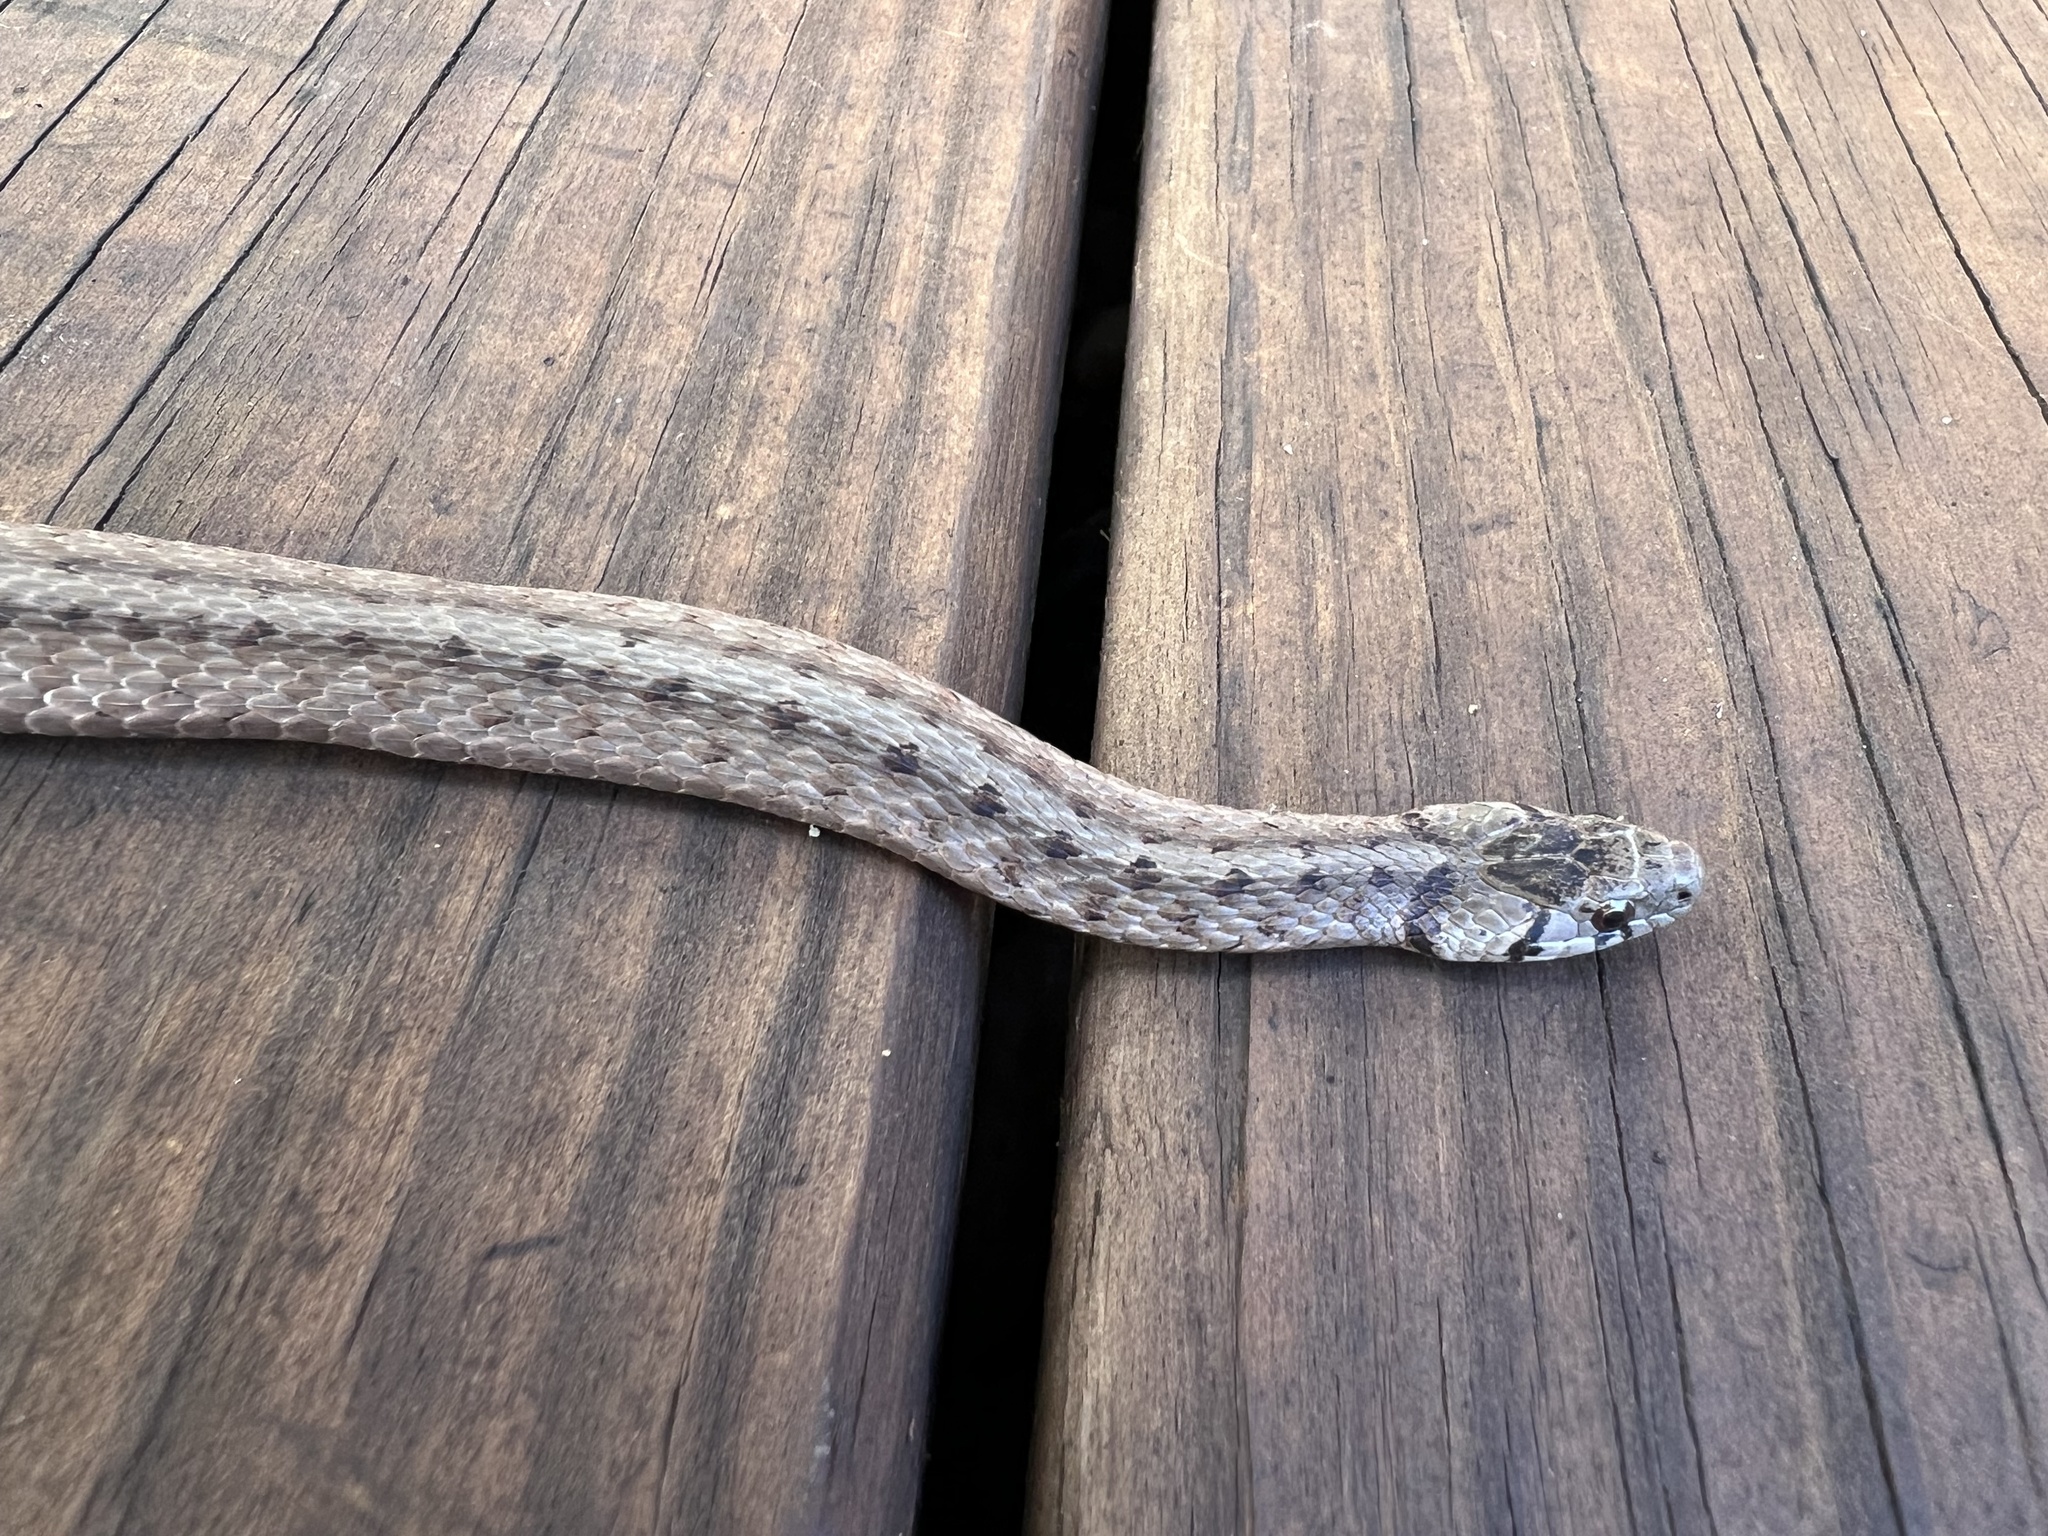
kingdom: Animalia
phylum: Chordata
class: Squamata
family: Colubridae
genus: Storeria
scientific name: Storeria dekayi
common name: (dekay’s) brown snake
